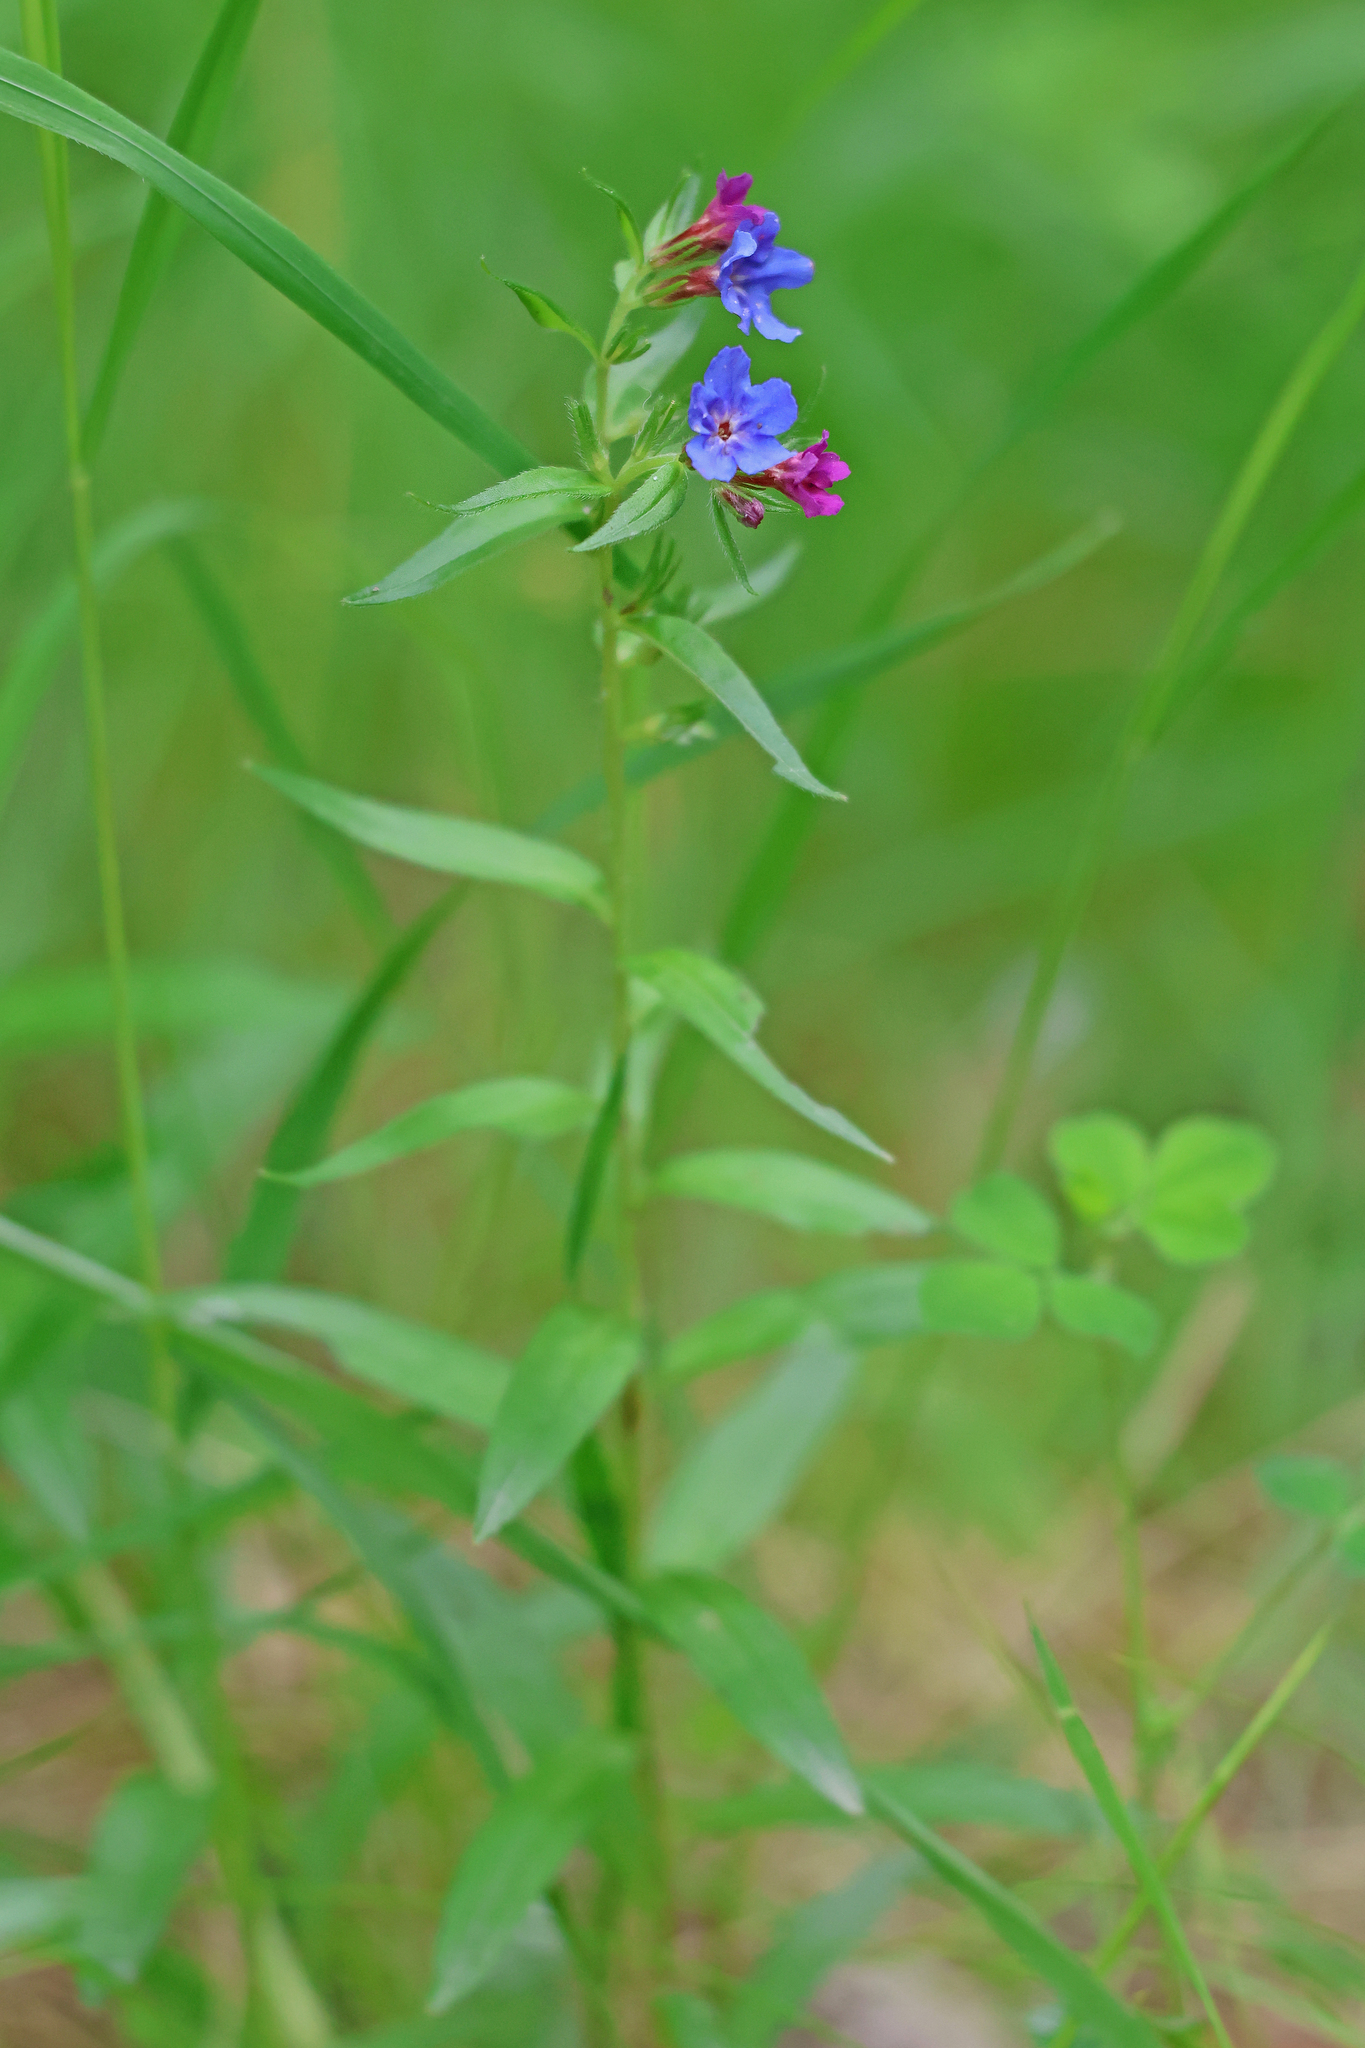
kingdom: Plantae
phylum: Tracheophyta
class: Magnoliopsida
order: Boraginales
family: Boraginaceae
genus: Aegonychon
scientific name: Aegonychon purpurocaeruleum
